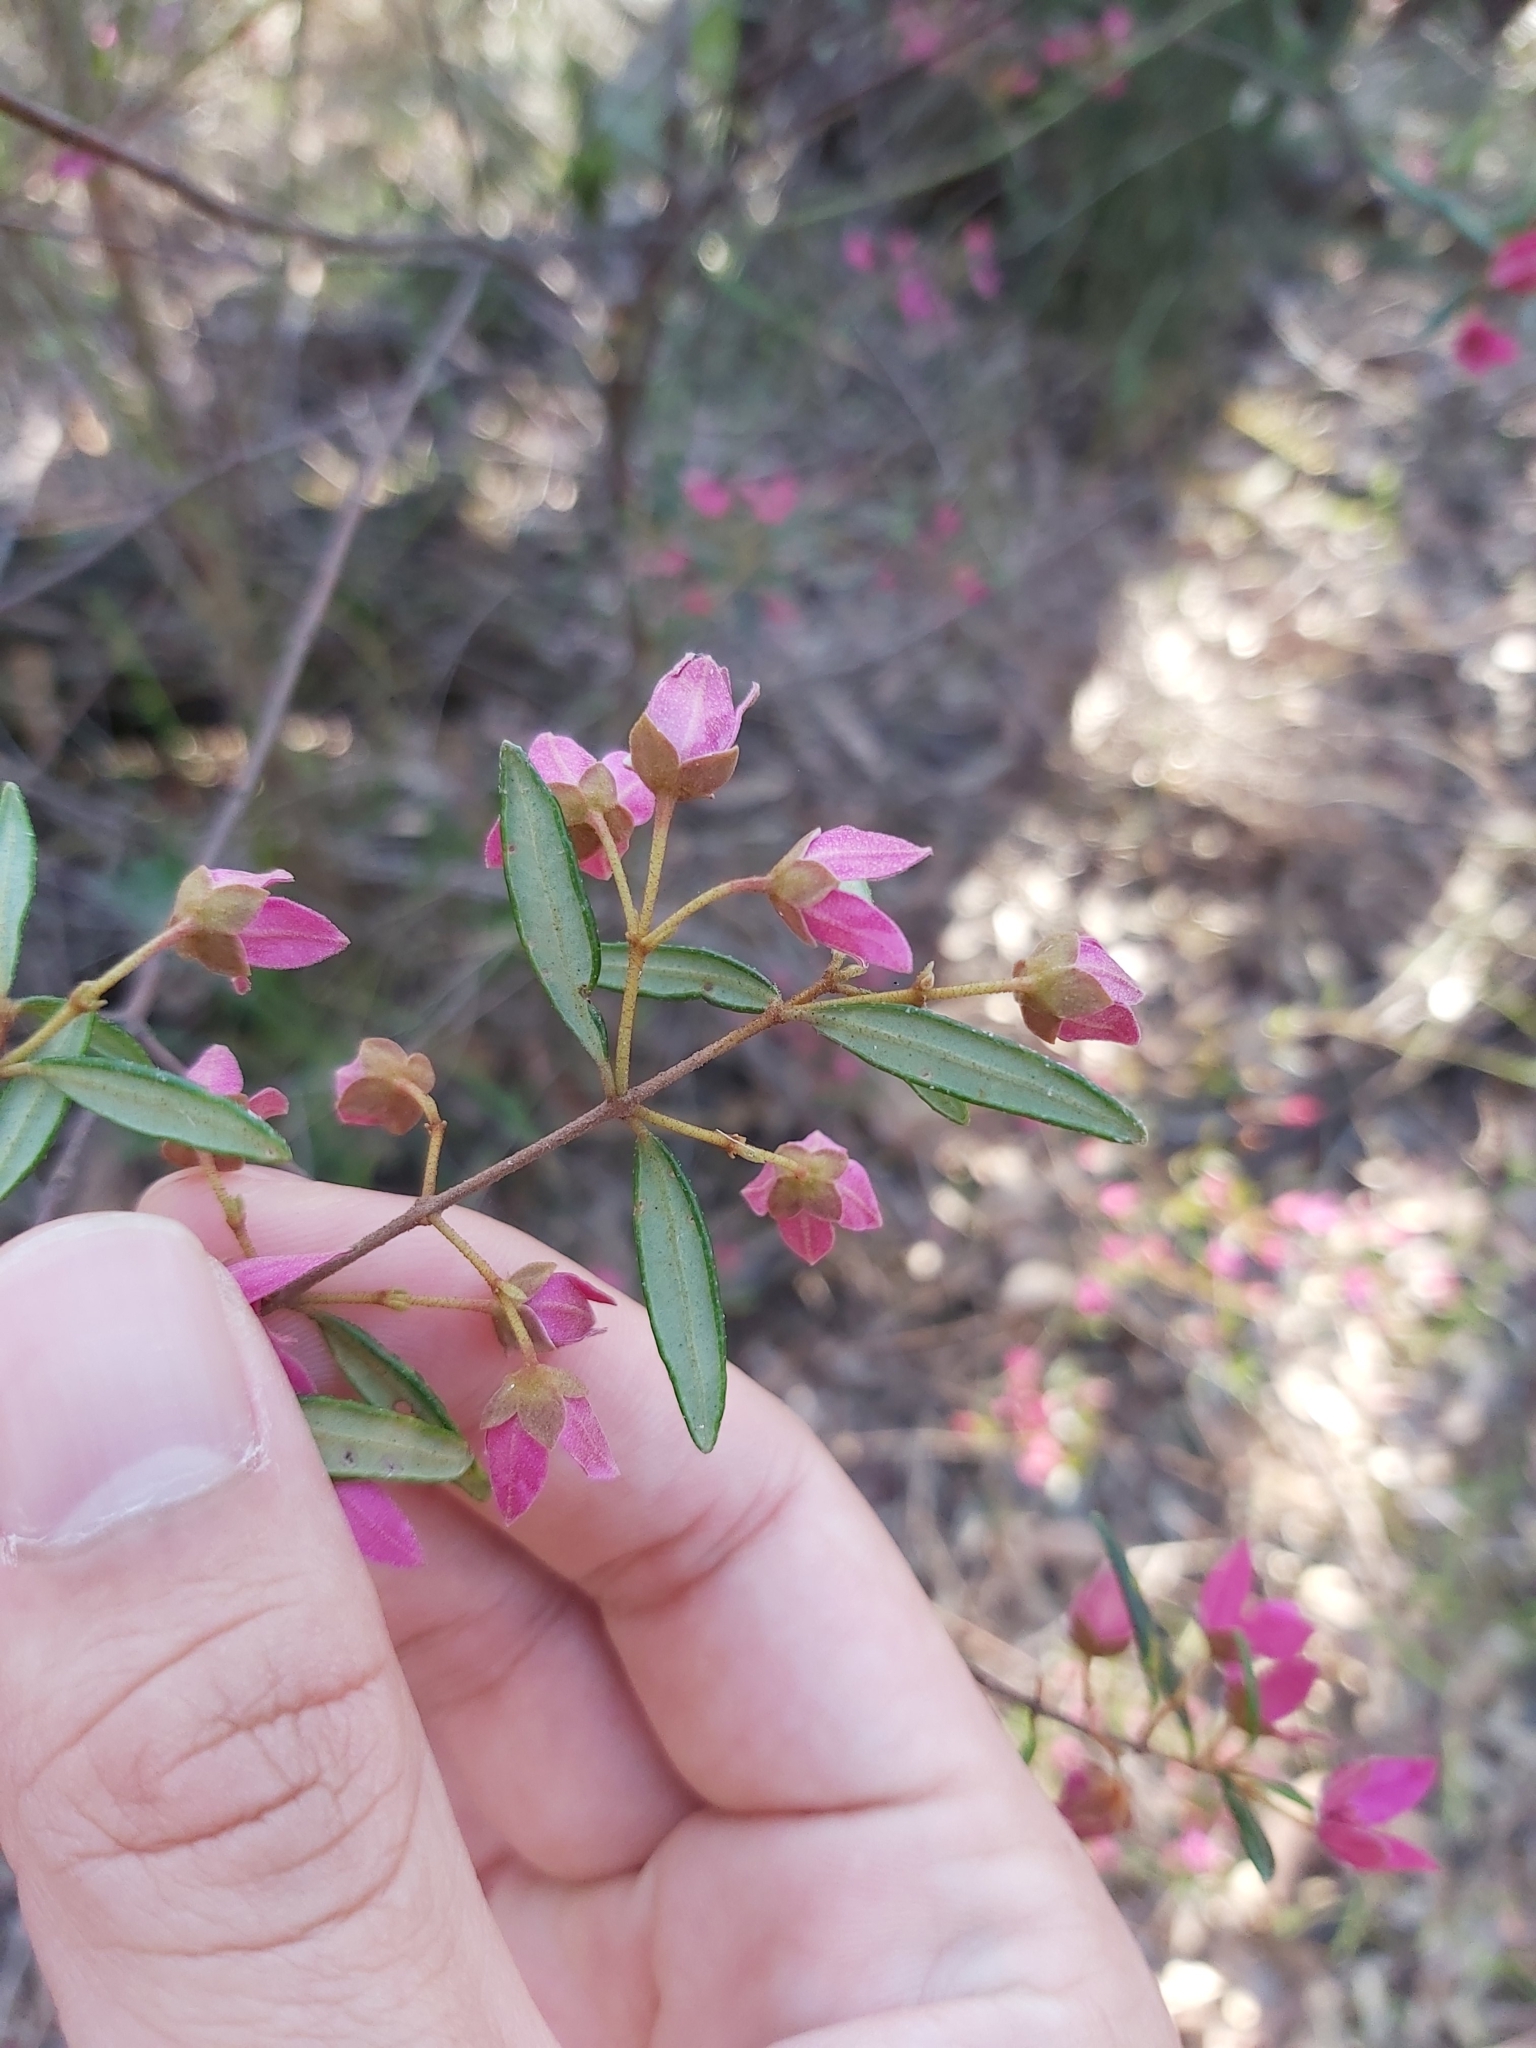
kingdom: Plantae
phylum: Tracheophyta
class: Magnoliopsida
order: Sapindales
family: Rutaceae
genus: Boronia
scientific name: Boronia ledifolia
